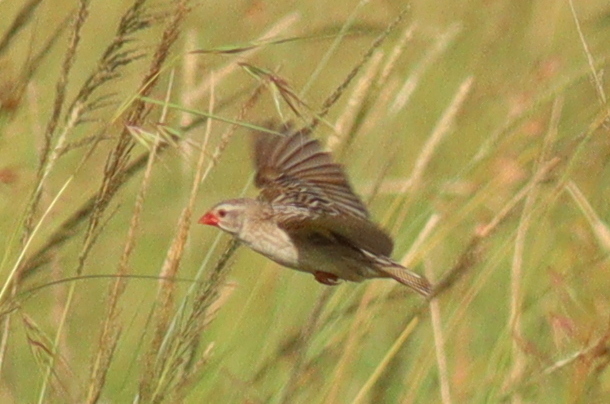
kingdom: Animalia
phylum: Chordata
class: Aves
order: Passeriformes
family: Ploceidae
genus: Quelea
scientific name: Quelea quelea
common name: Red-billed quelea
